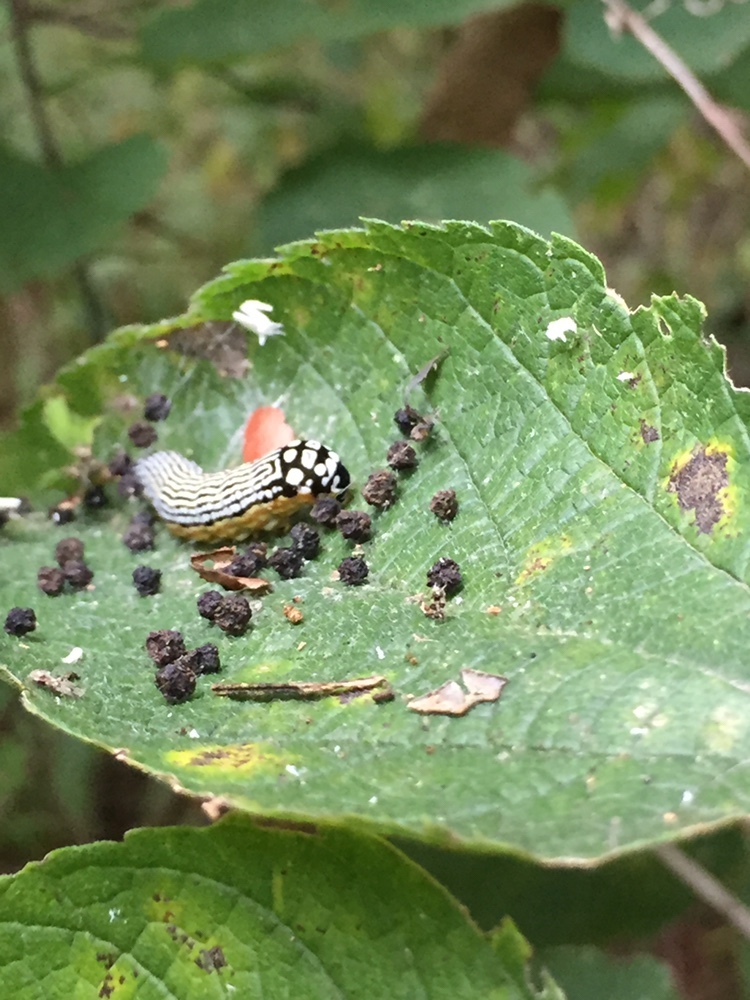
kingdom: Animalia
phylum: Arthropoda
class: Insecta
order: Lepidoptera
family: Noctuidae
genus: Phosphila
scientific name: Phosphila turbulenta
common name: Turbulent phosphila moth
